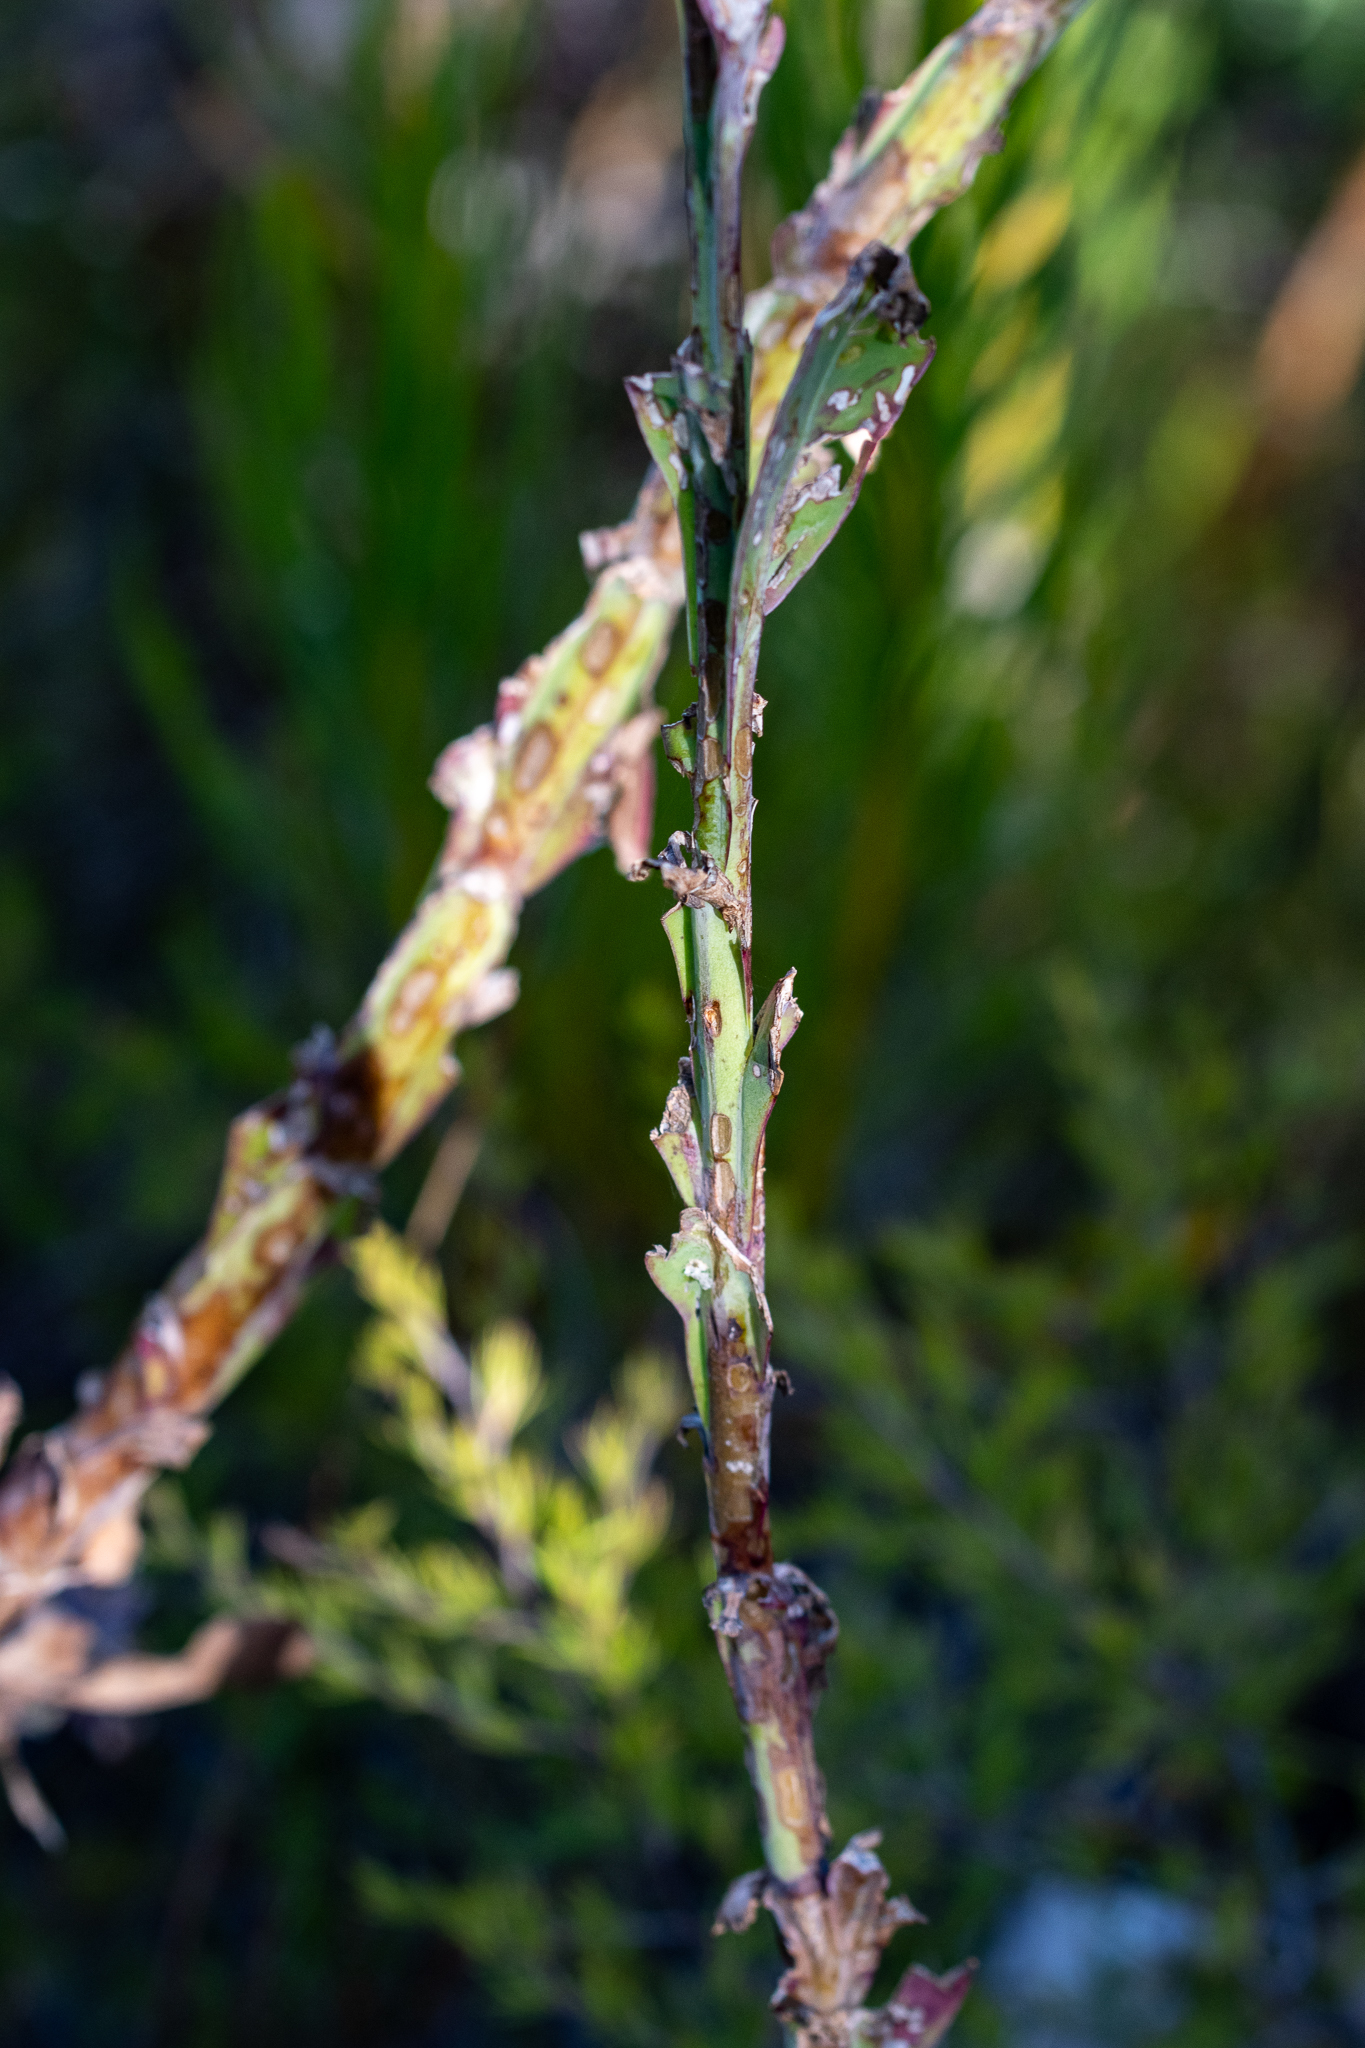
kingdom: Plantae
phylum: Tracheophyta
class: Magnoliopsida
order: Asterales
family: Asteraceae
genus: Othonna
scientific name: Othonna quinquedentata
